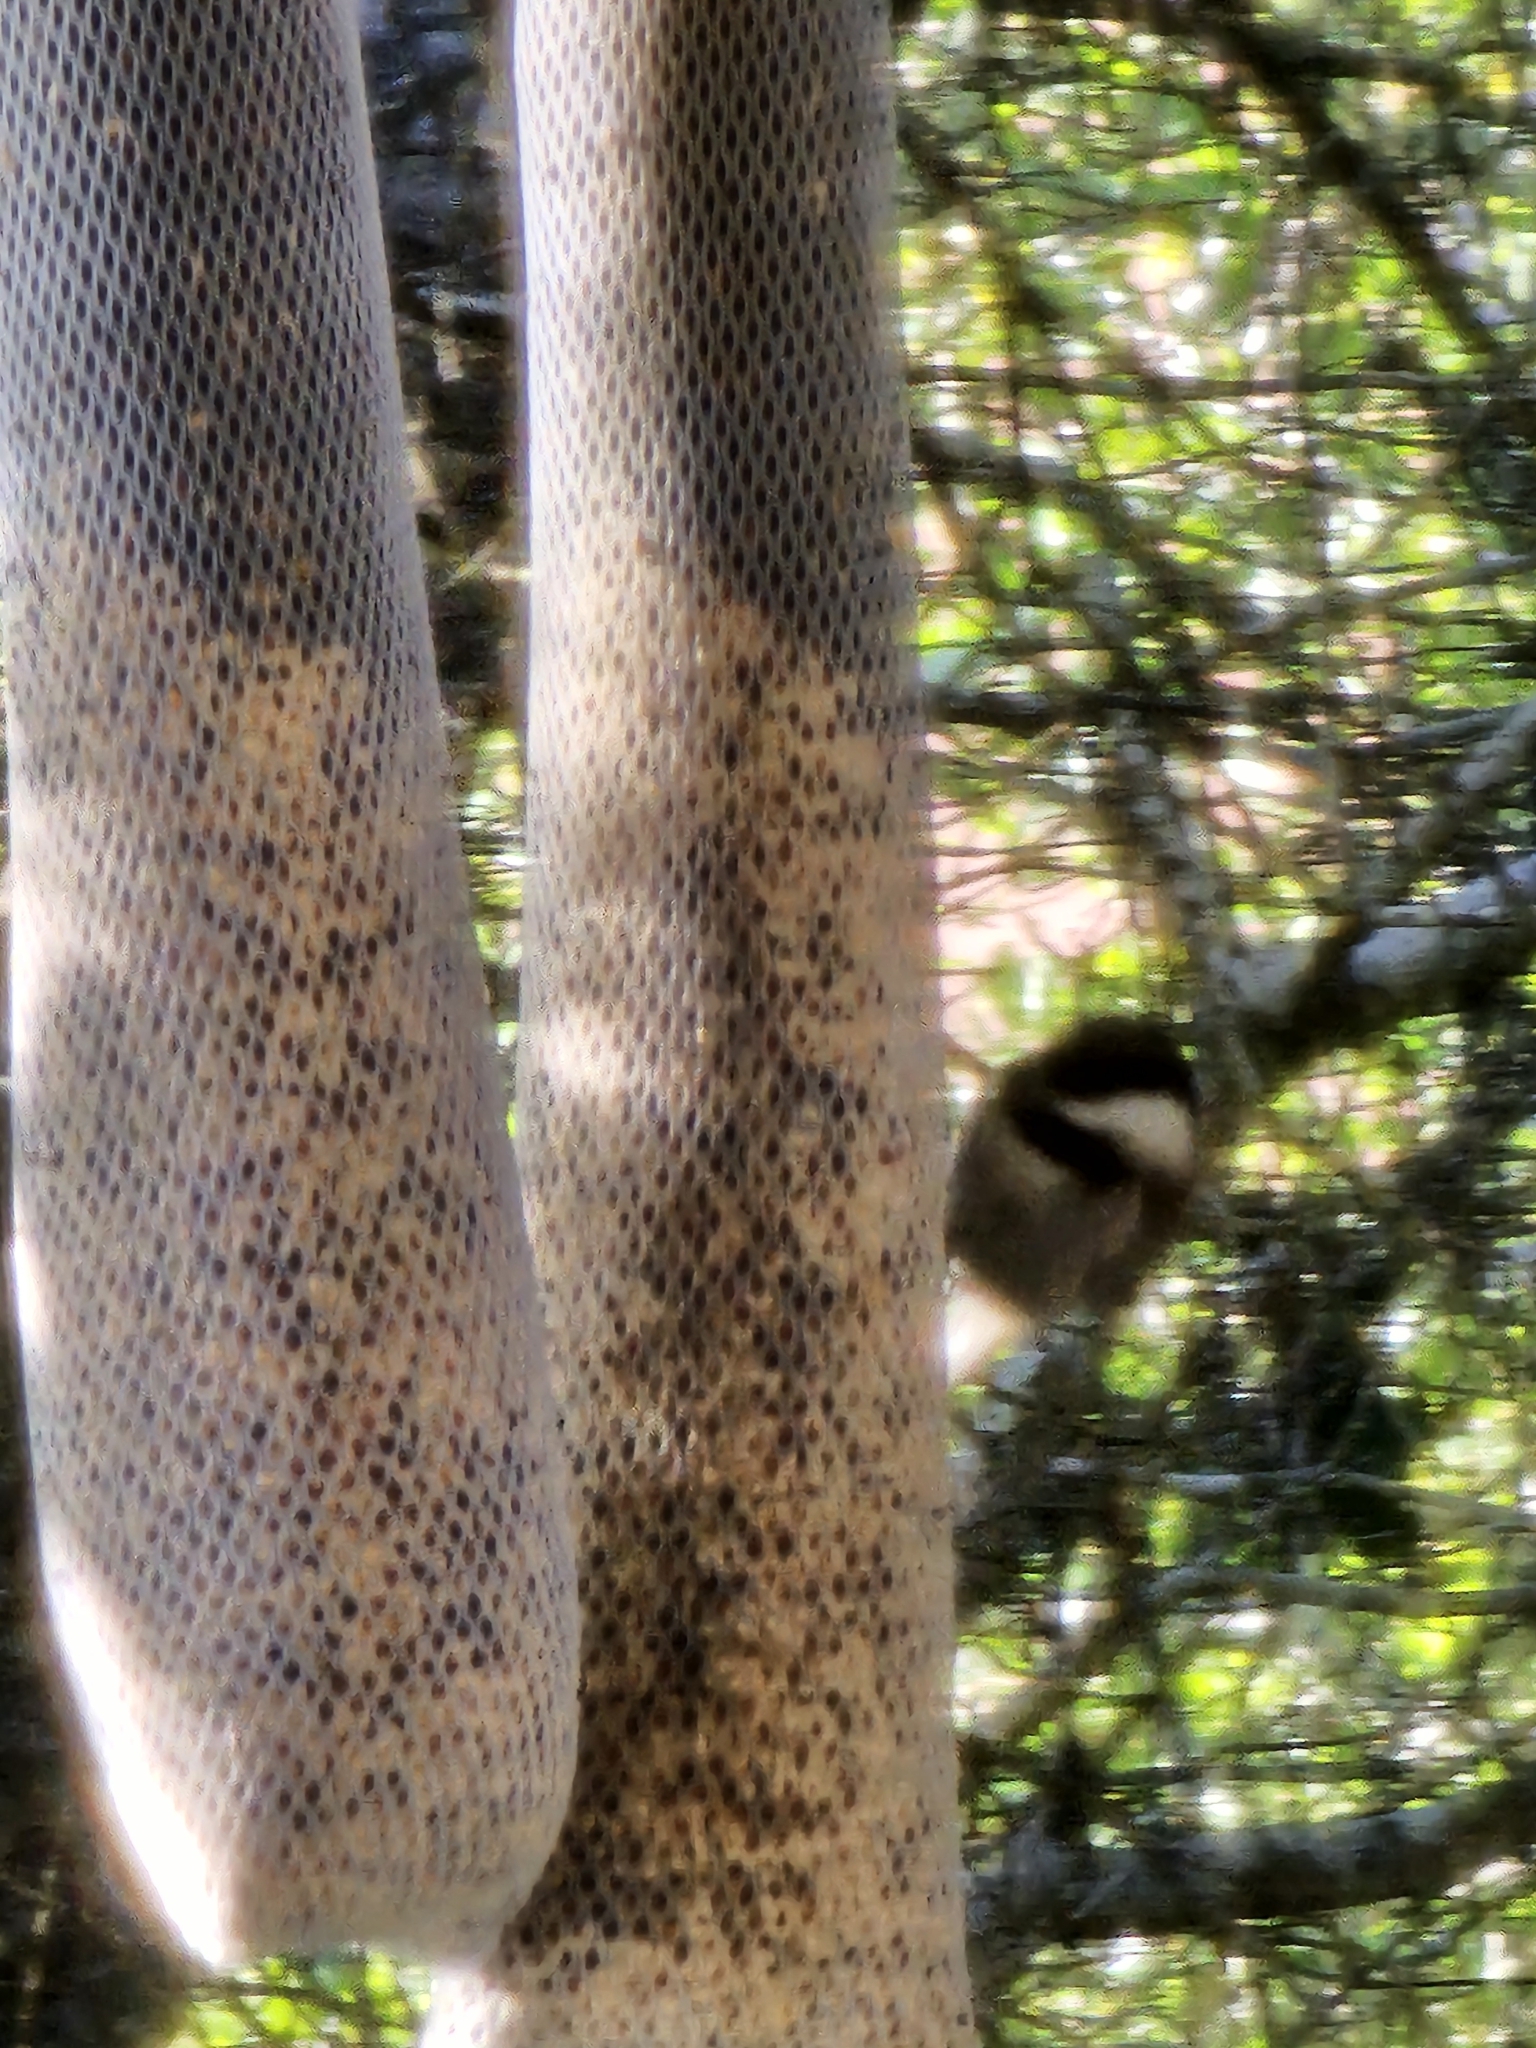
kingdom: Animalia
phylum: Chordata
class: Aves
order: Passeriformes
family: Paridae
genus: Poecile
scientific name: Poecile rufescens
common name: Chestnut-backed chickadee
